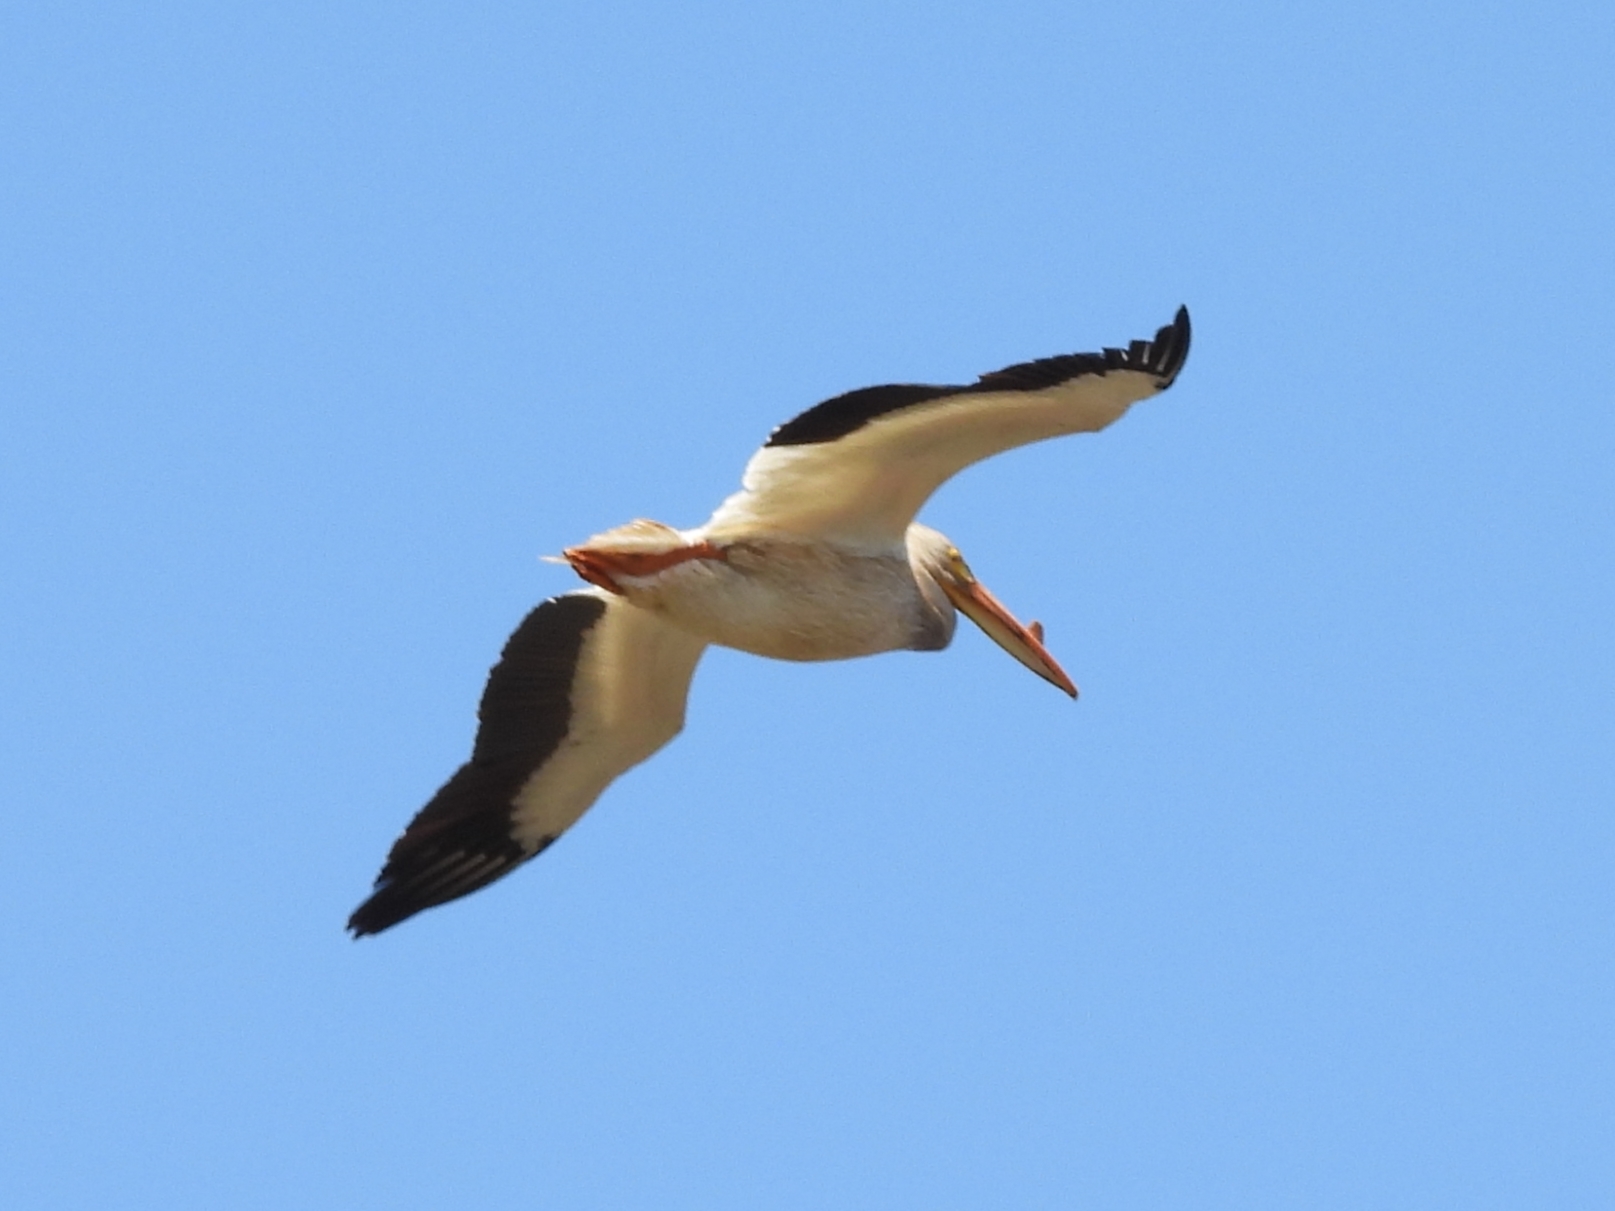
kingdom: Animalia
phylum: Chordata
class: Aves
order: Pelecaniformes
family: Pelecanidae
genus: Pelecanus
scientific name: Pelecanus erythrorhynchos
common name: American white pelican
